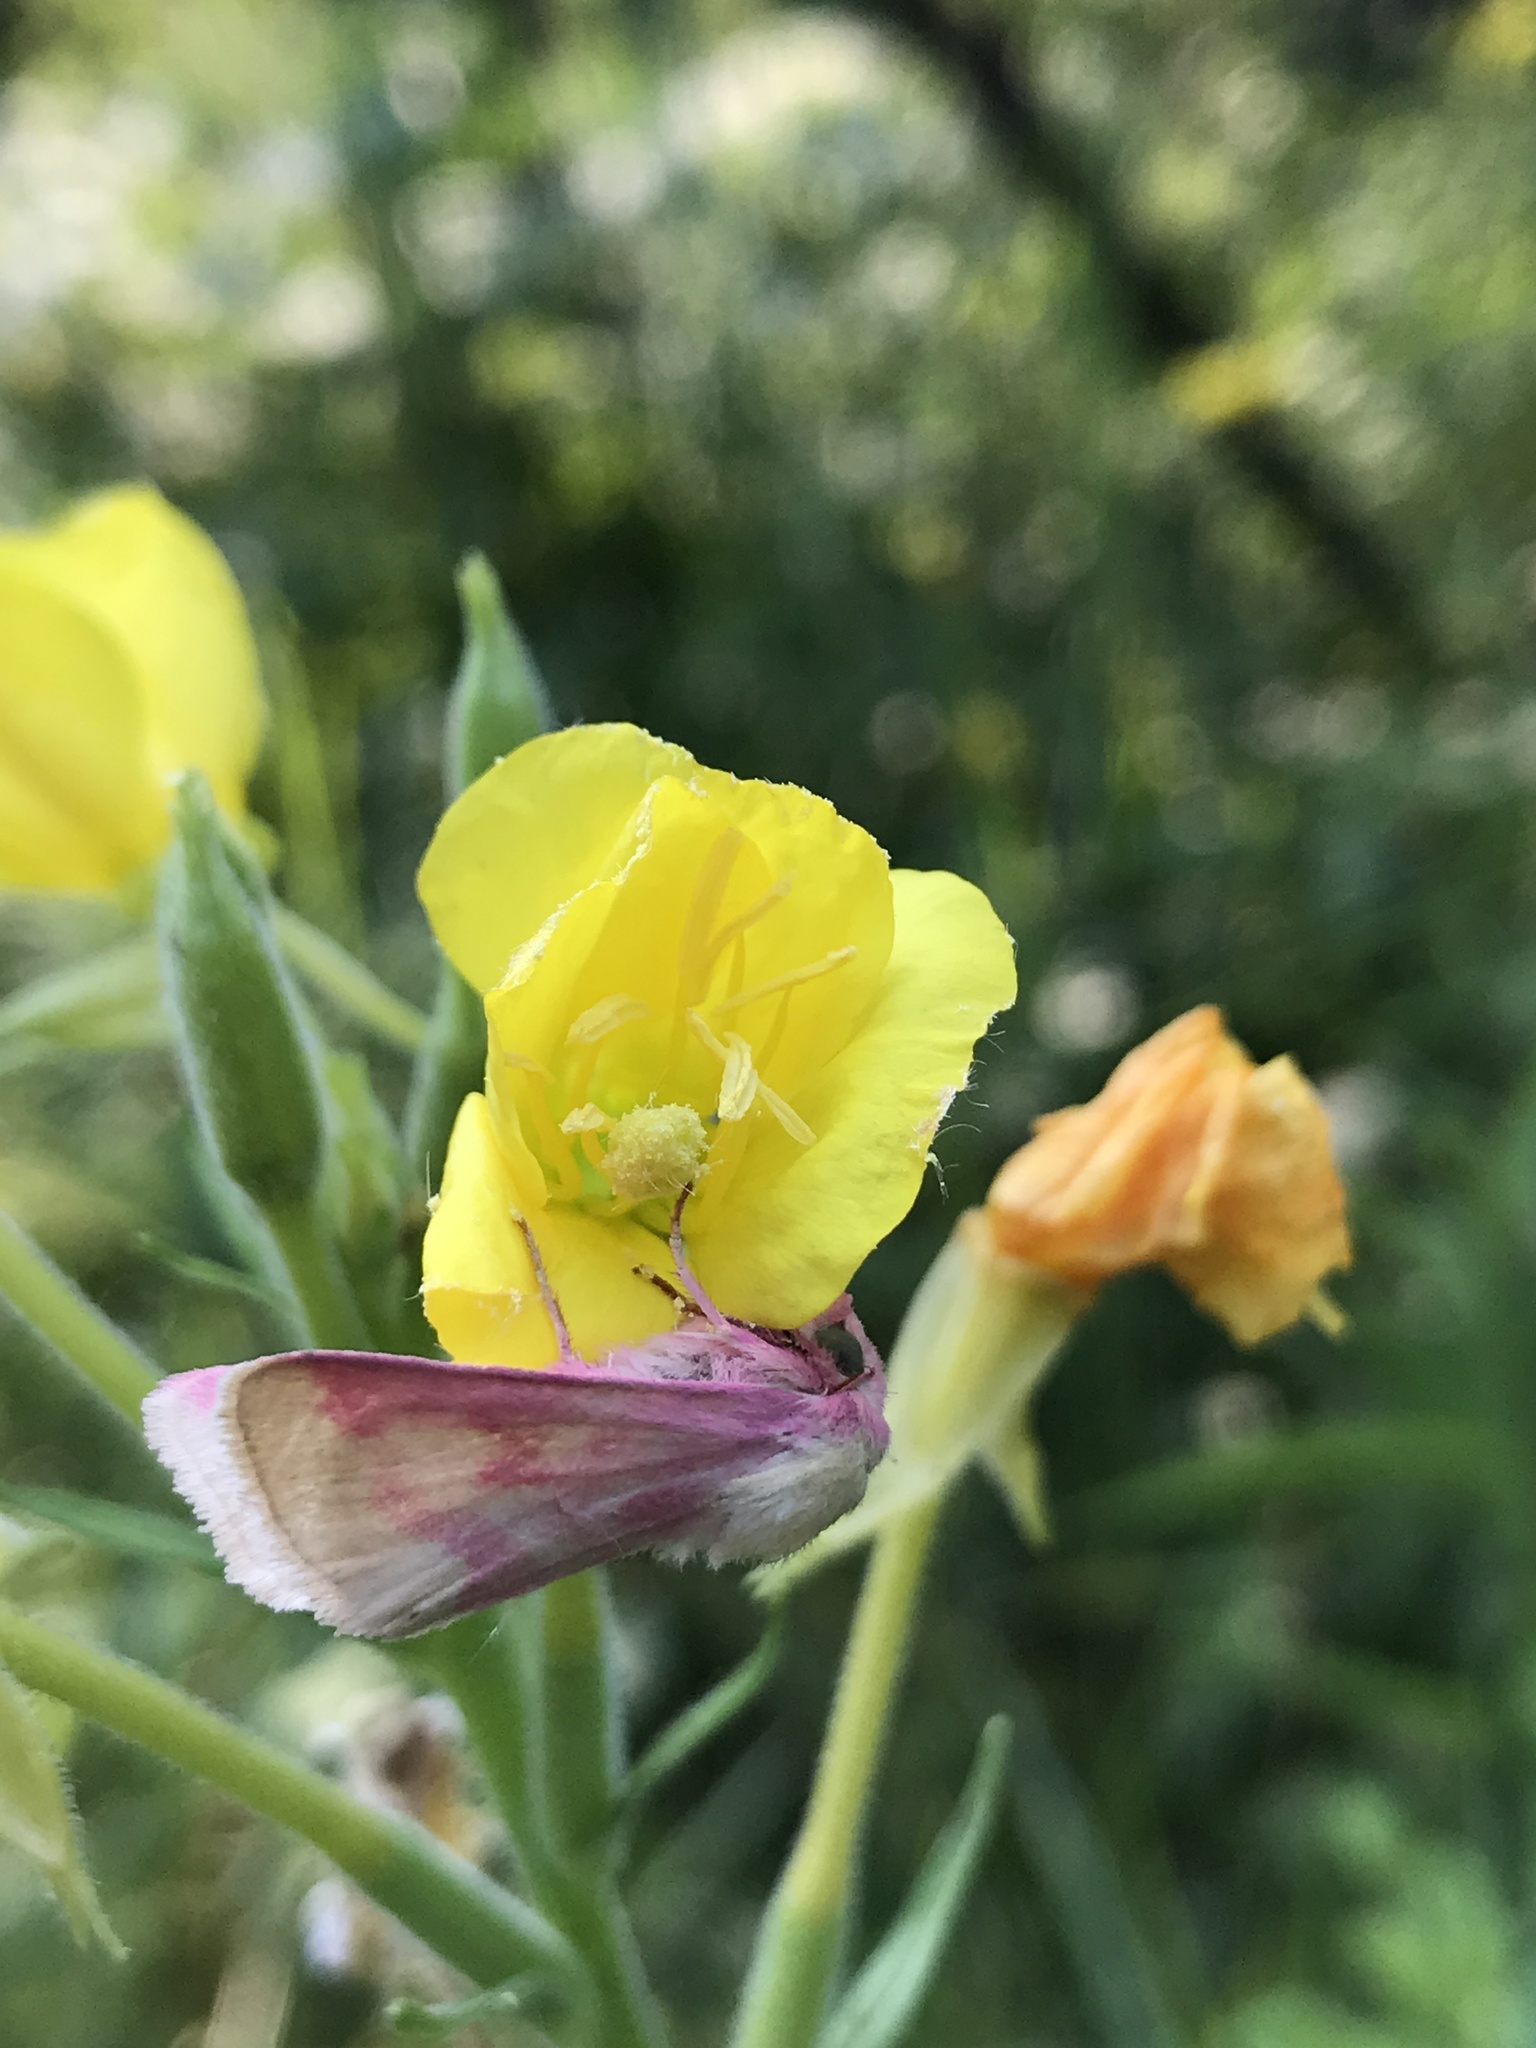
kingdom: Animalia
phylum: Arthropoda
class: Insecta
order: Lepidoptera
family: Noctuidae
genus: Schinia
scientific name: Schinia florida
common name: Primrose moth
